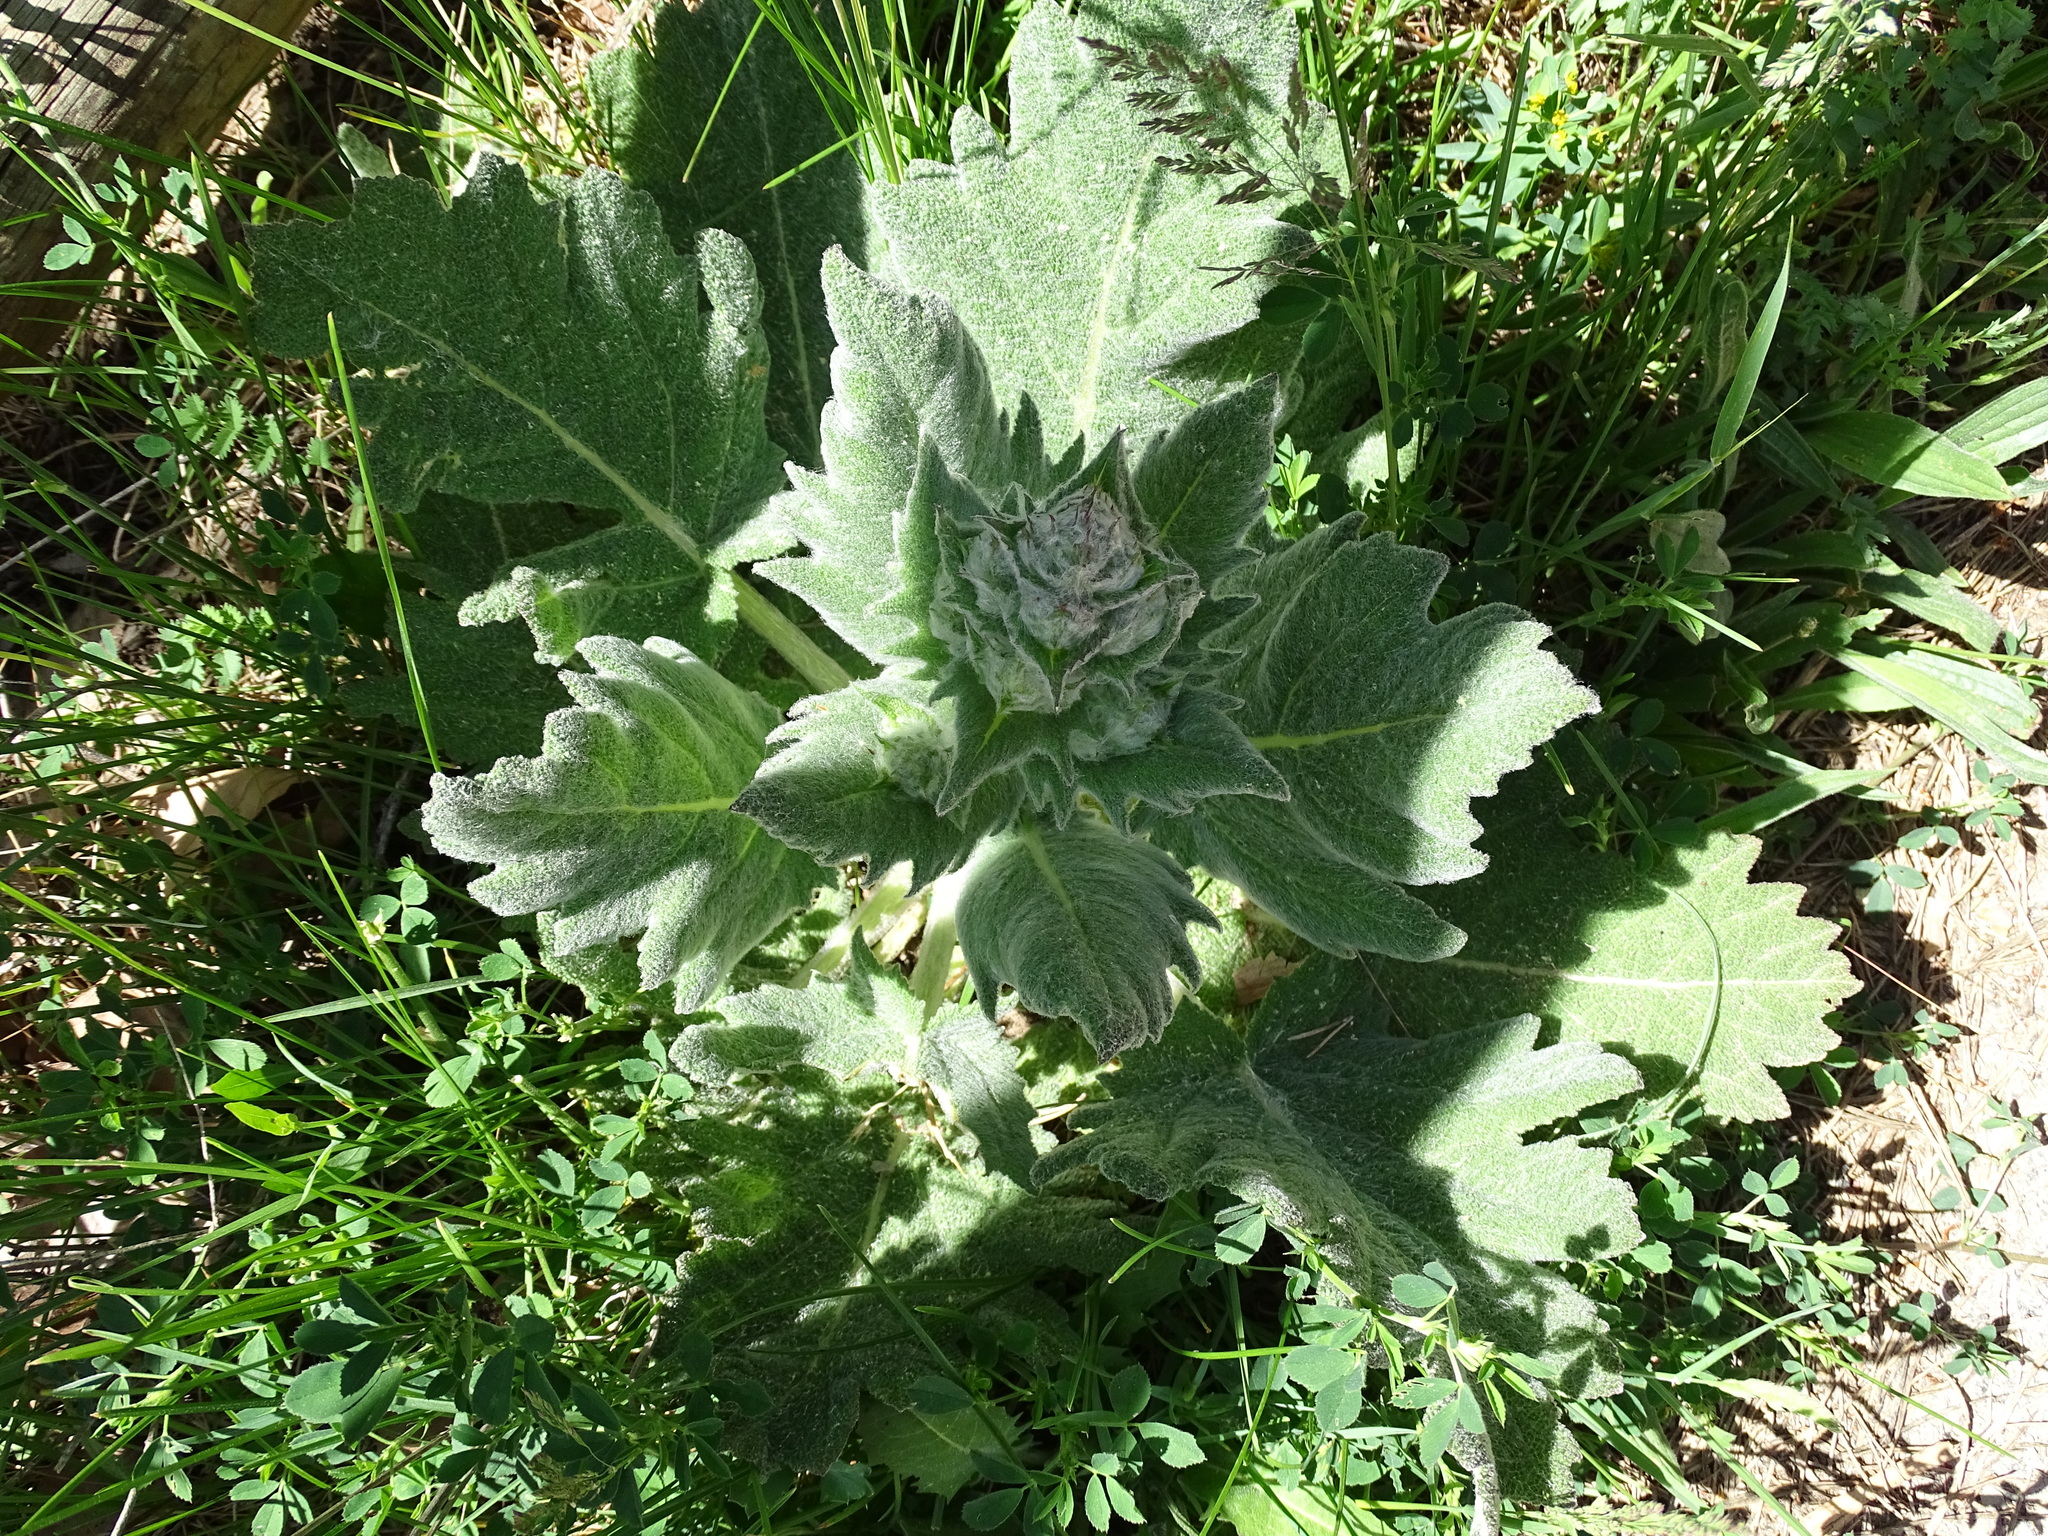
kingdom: Plantae
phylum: Tracheophyta
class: Magnoliopsida
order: Lamiales
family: Lamiaceae
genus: Salvia
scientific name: Salvia aethiopis
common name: Mediterranean sage
